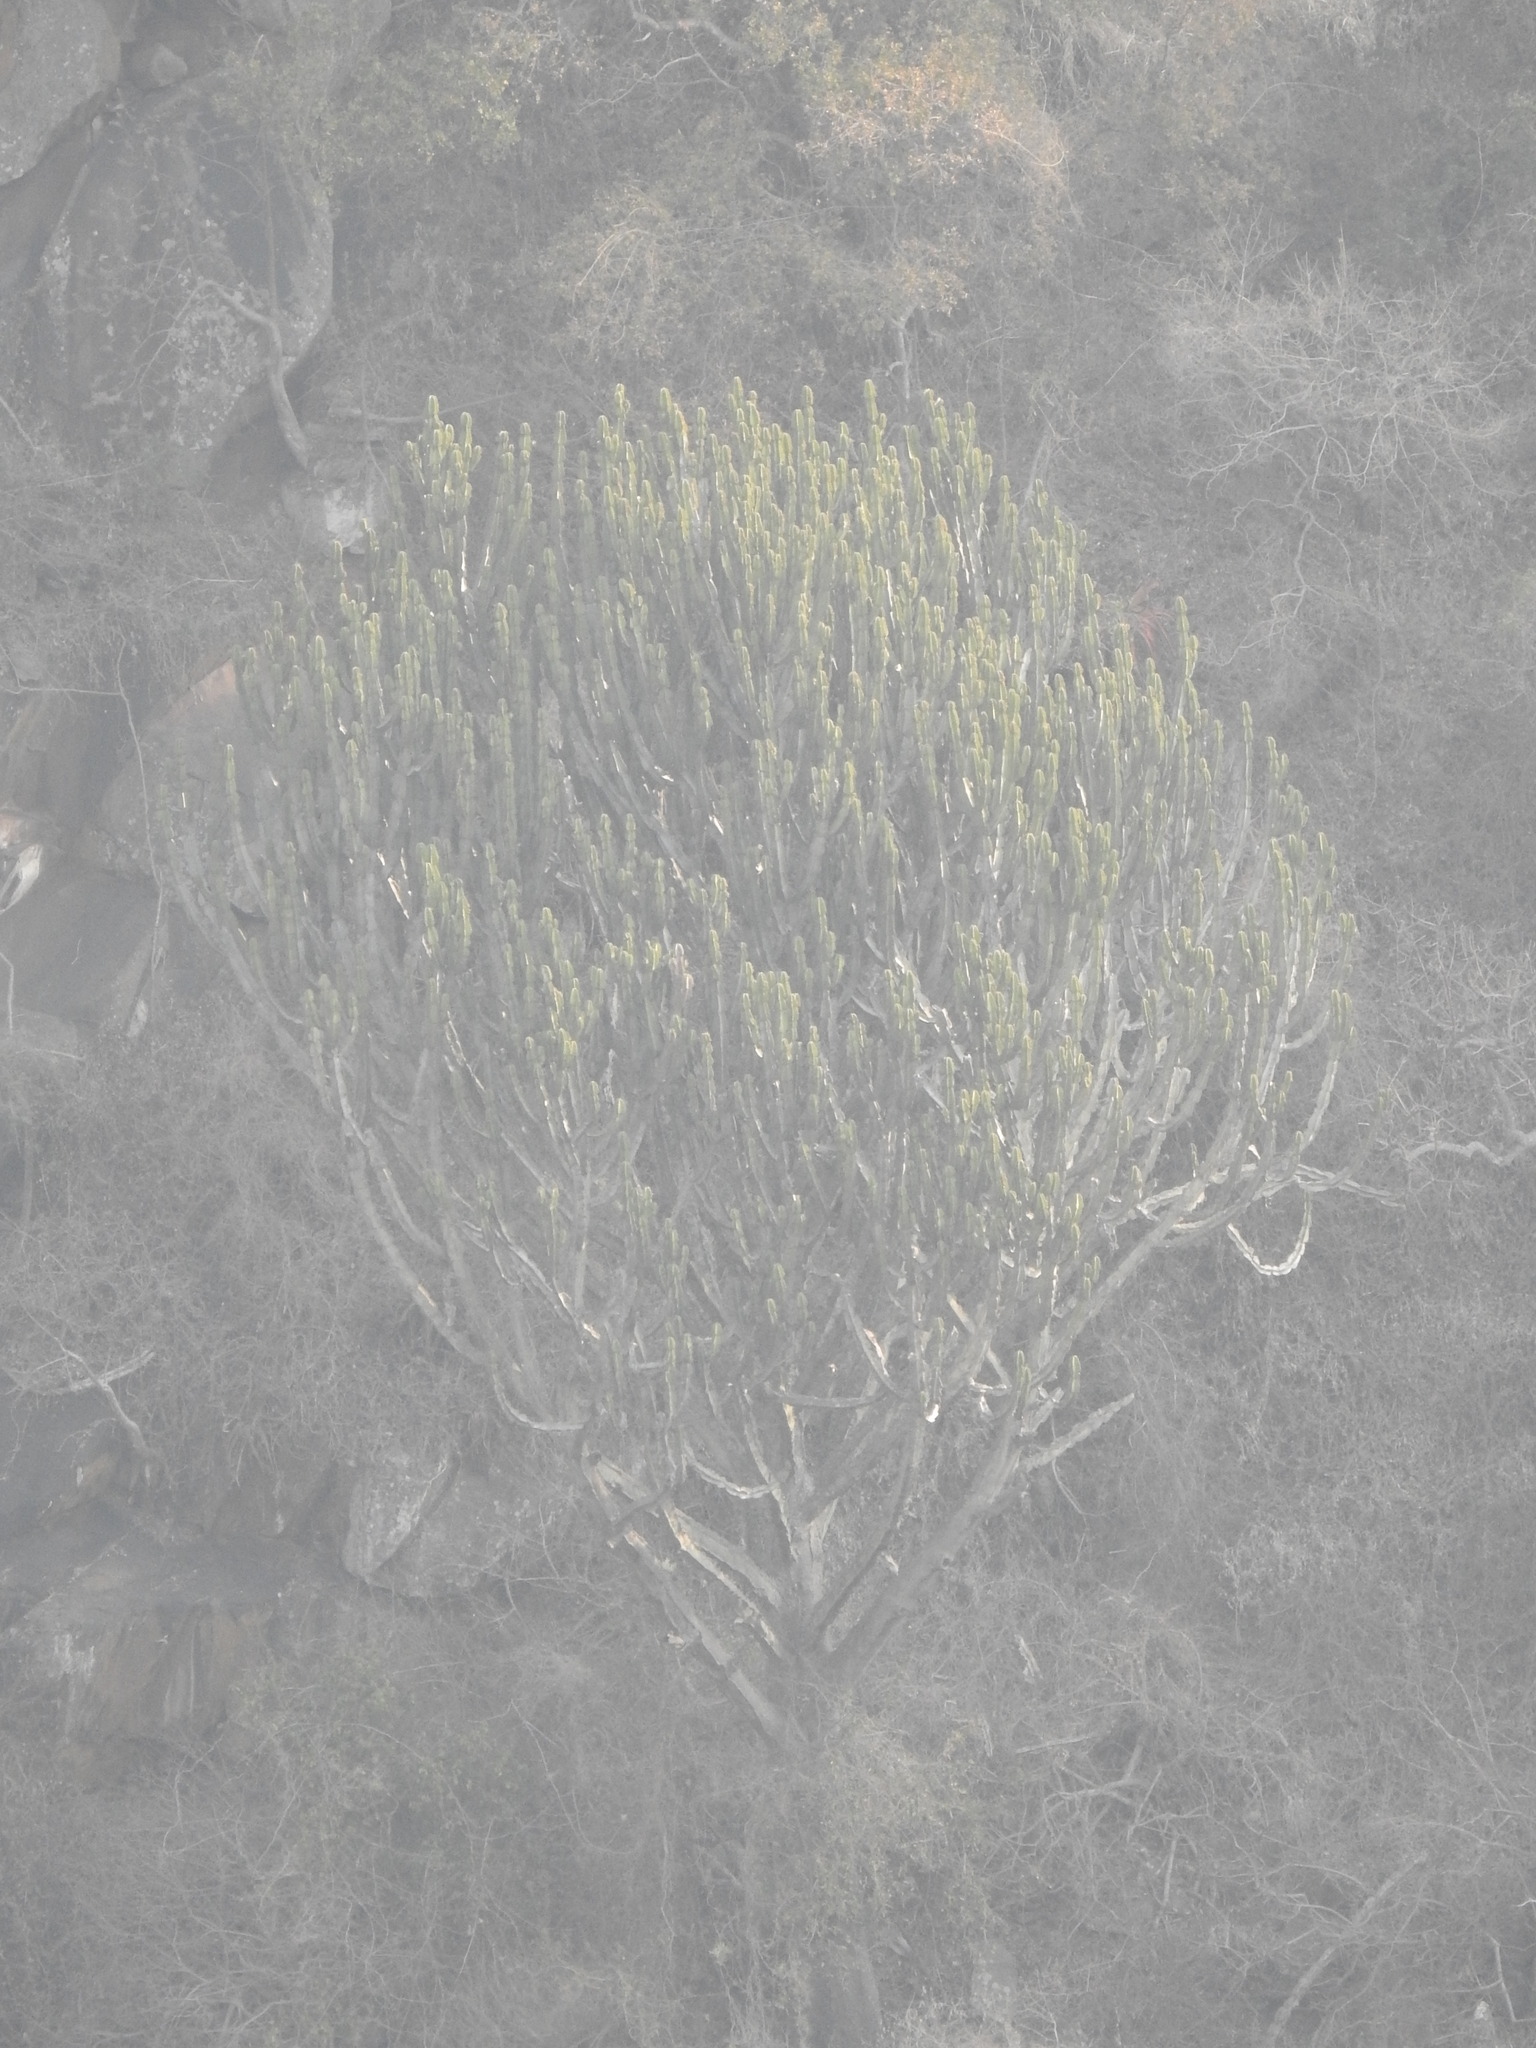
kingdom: Plantae
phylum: Tracheophyta
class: Magnoliopsida
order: Malpighiales
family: Euphorbiaceae
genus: Euphorbia
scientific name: Euphorbia ingens
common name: Cactus spurge
